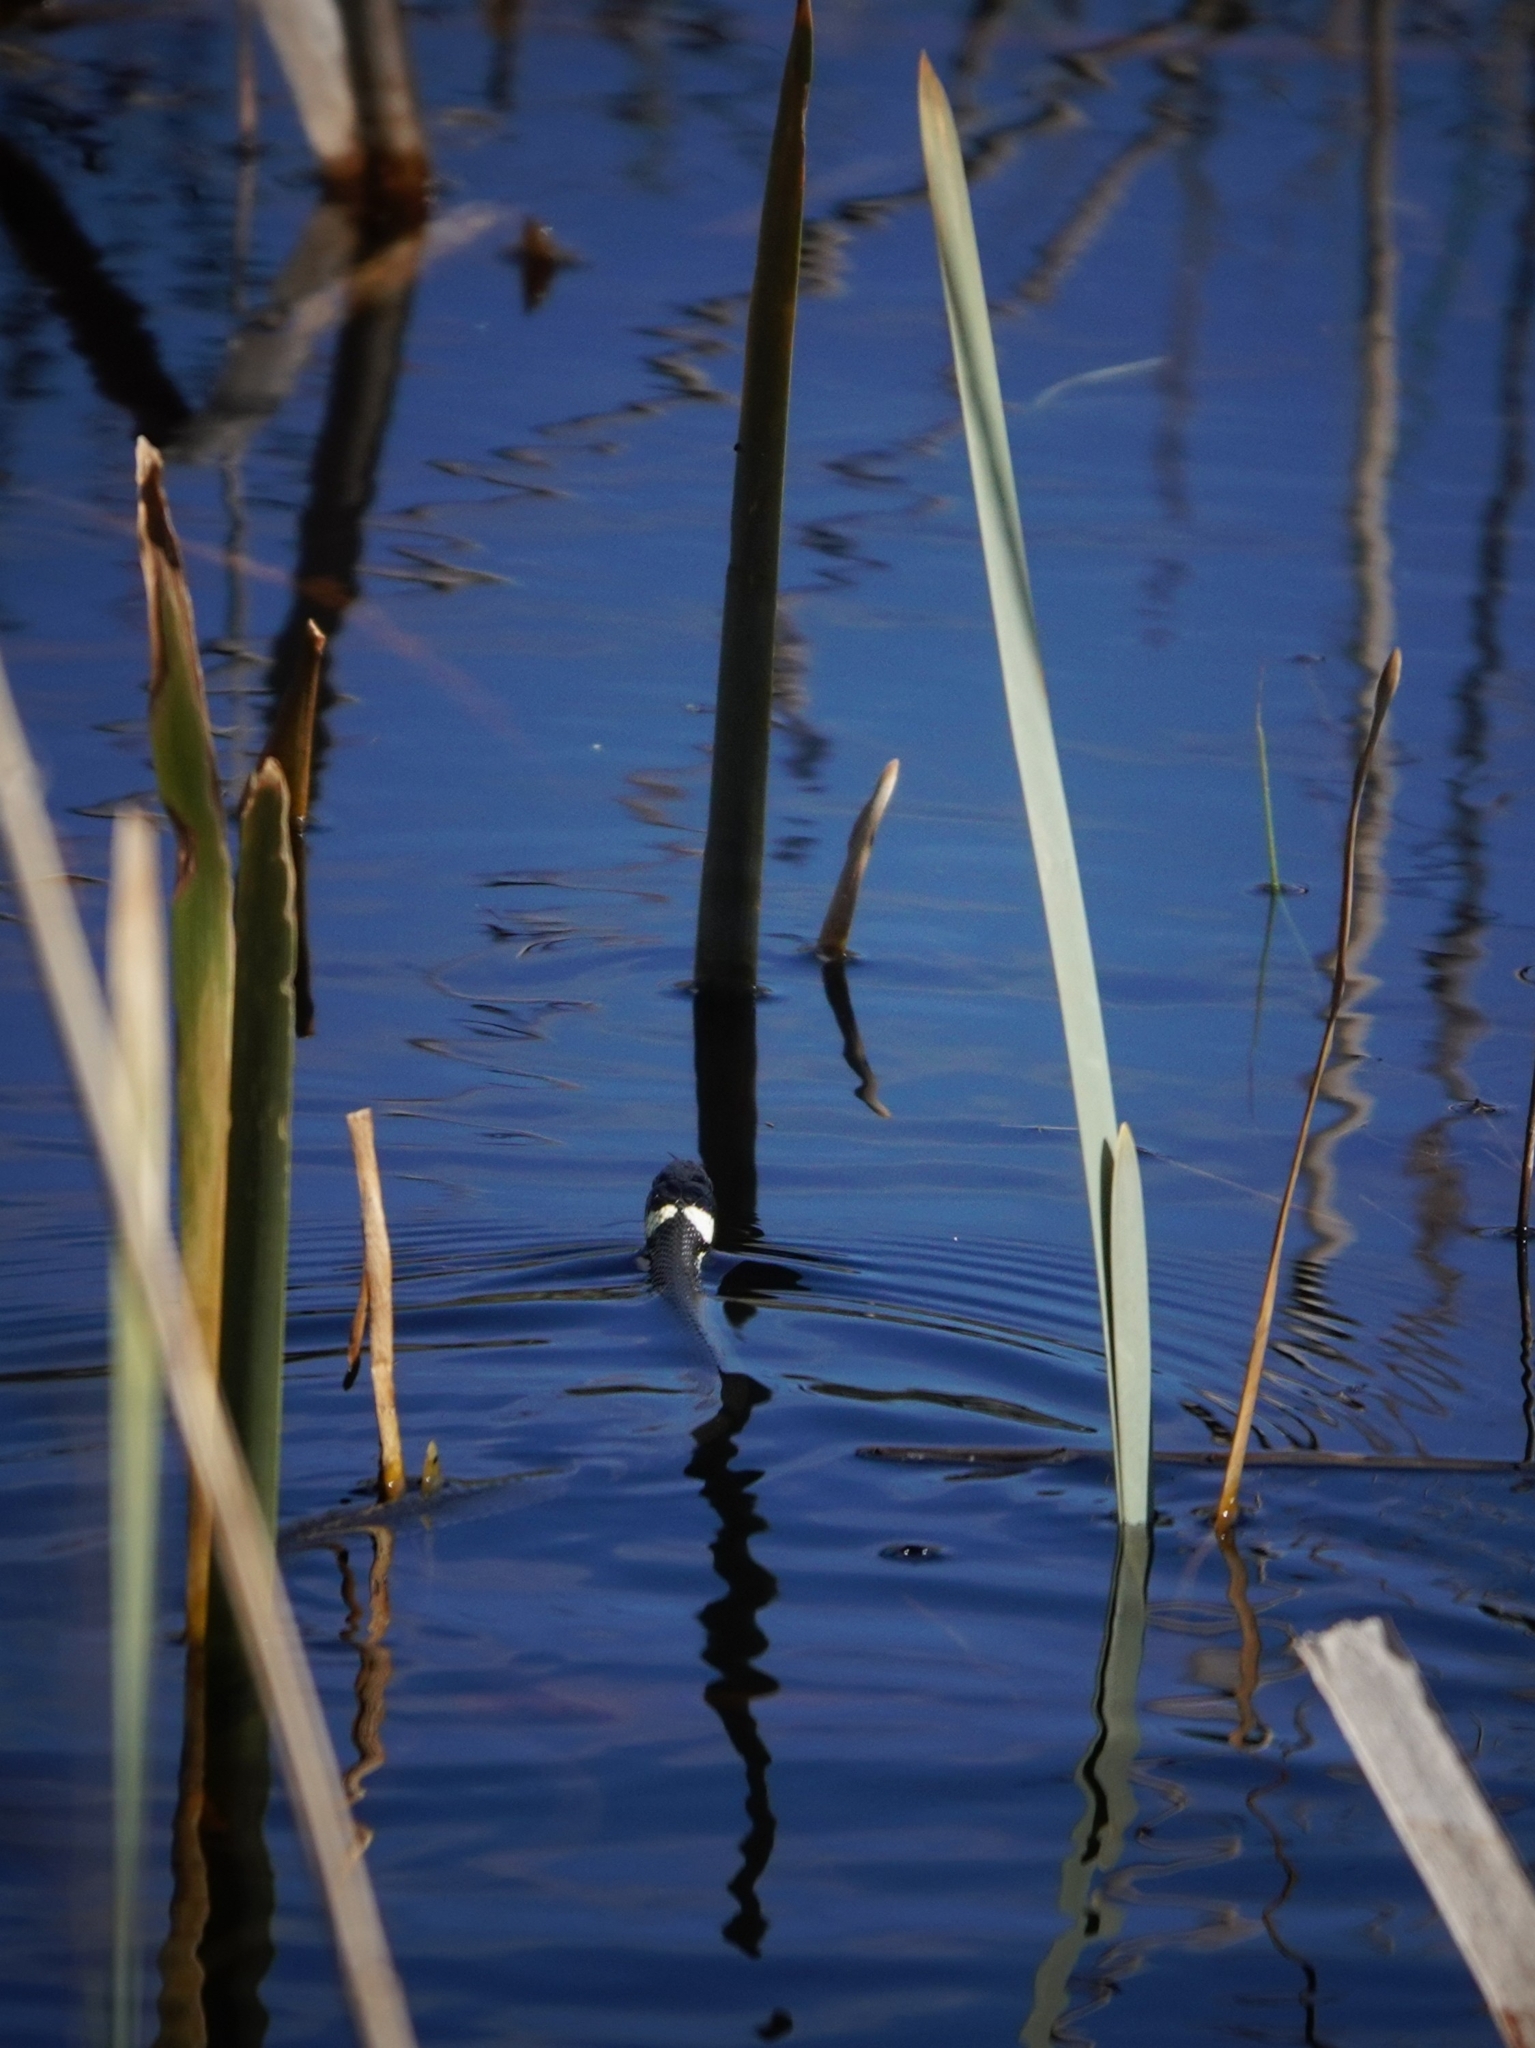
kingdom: Animalia
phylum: Chordata
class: Squamata
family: Colubridae
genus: Natrix
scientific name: Natrix natrix
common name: Grass snake
